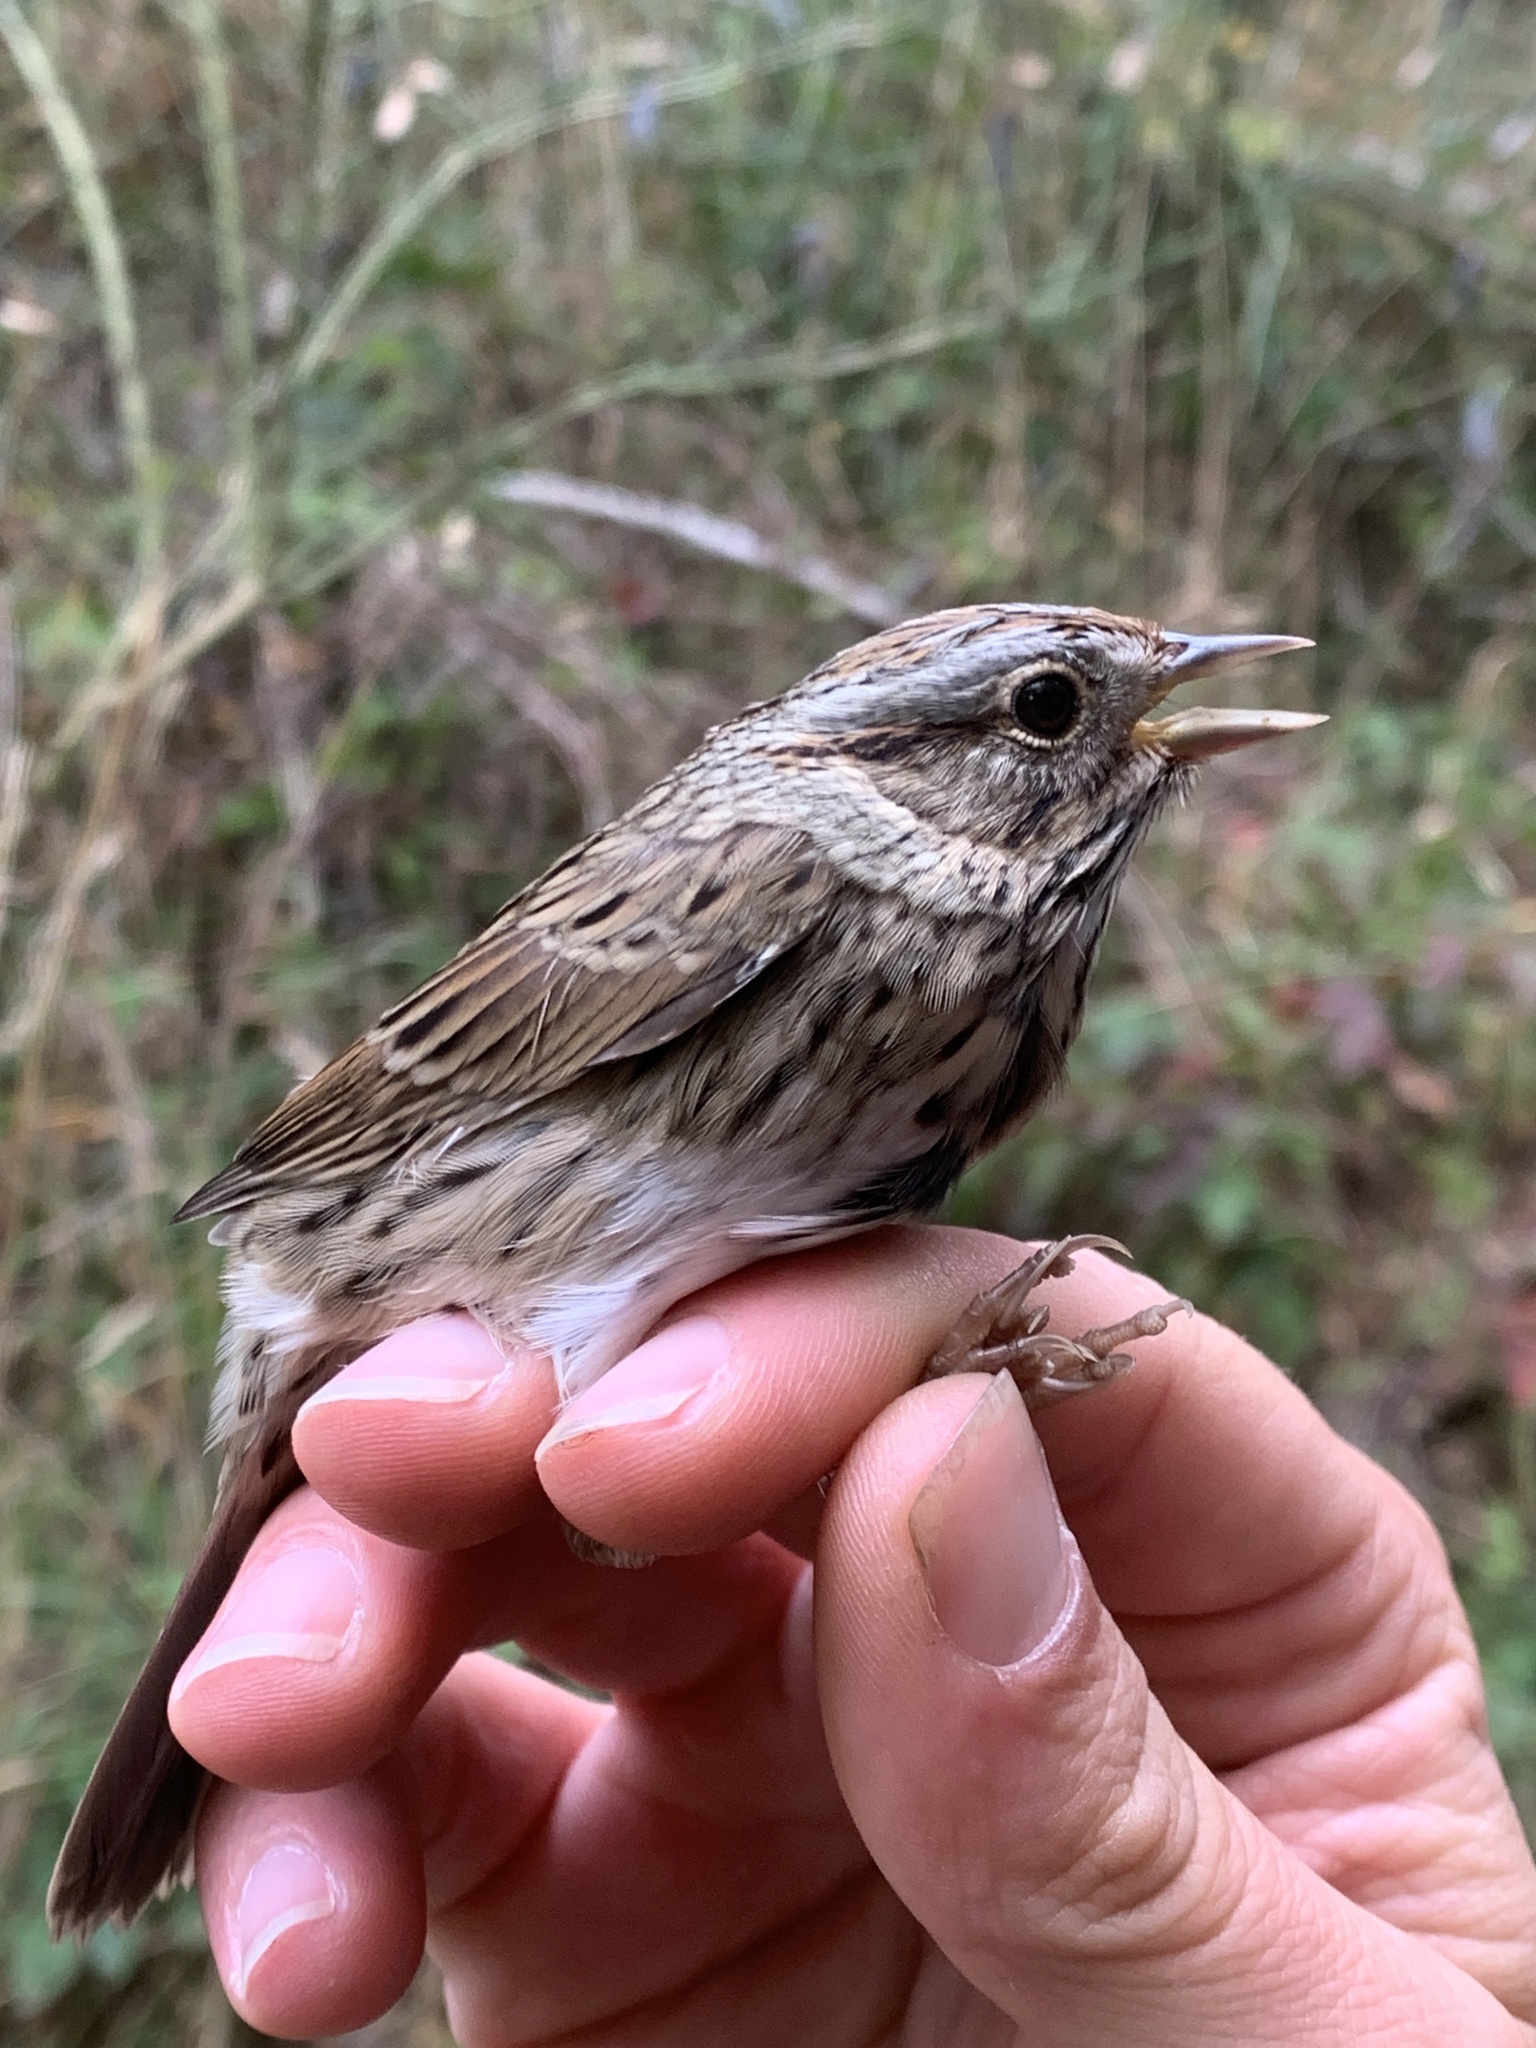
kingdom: Animalia
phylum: Chordata
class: Aves
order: Passeriformes
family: Passerellidae
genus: Melospiza
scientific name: Melospiza lincolnii
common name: Lincoln's sparrow
